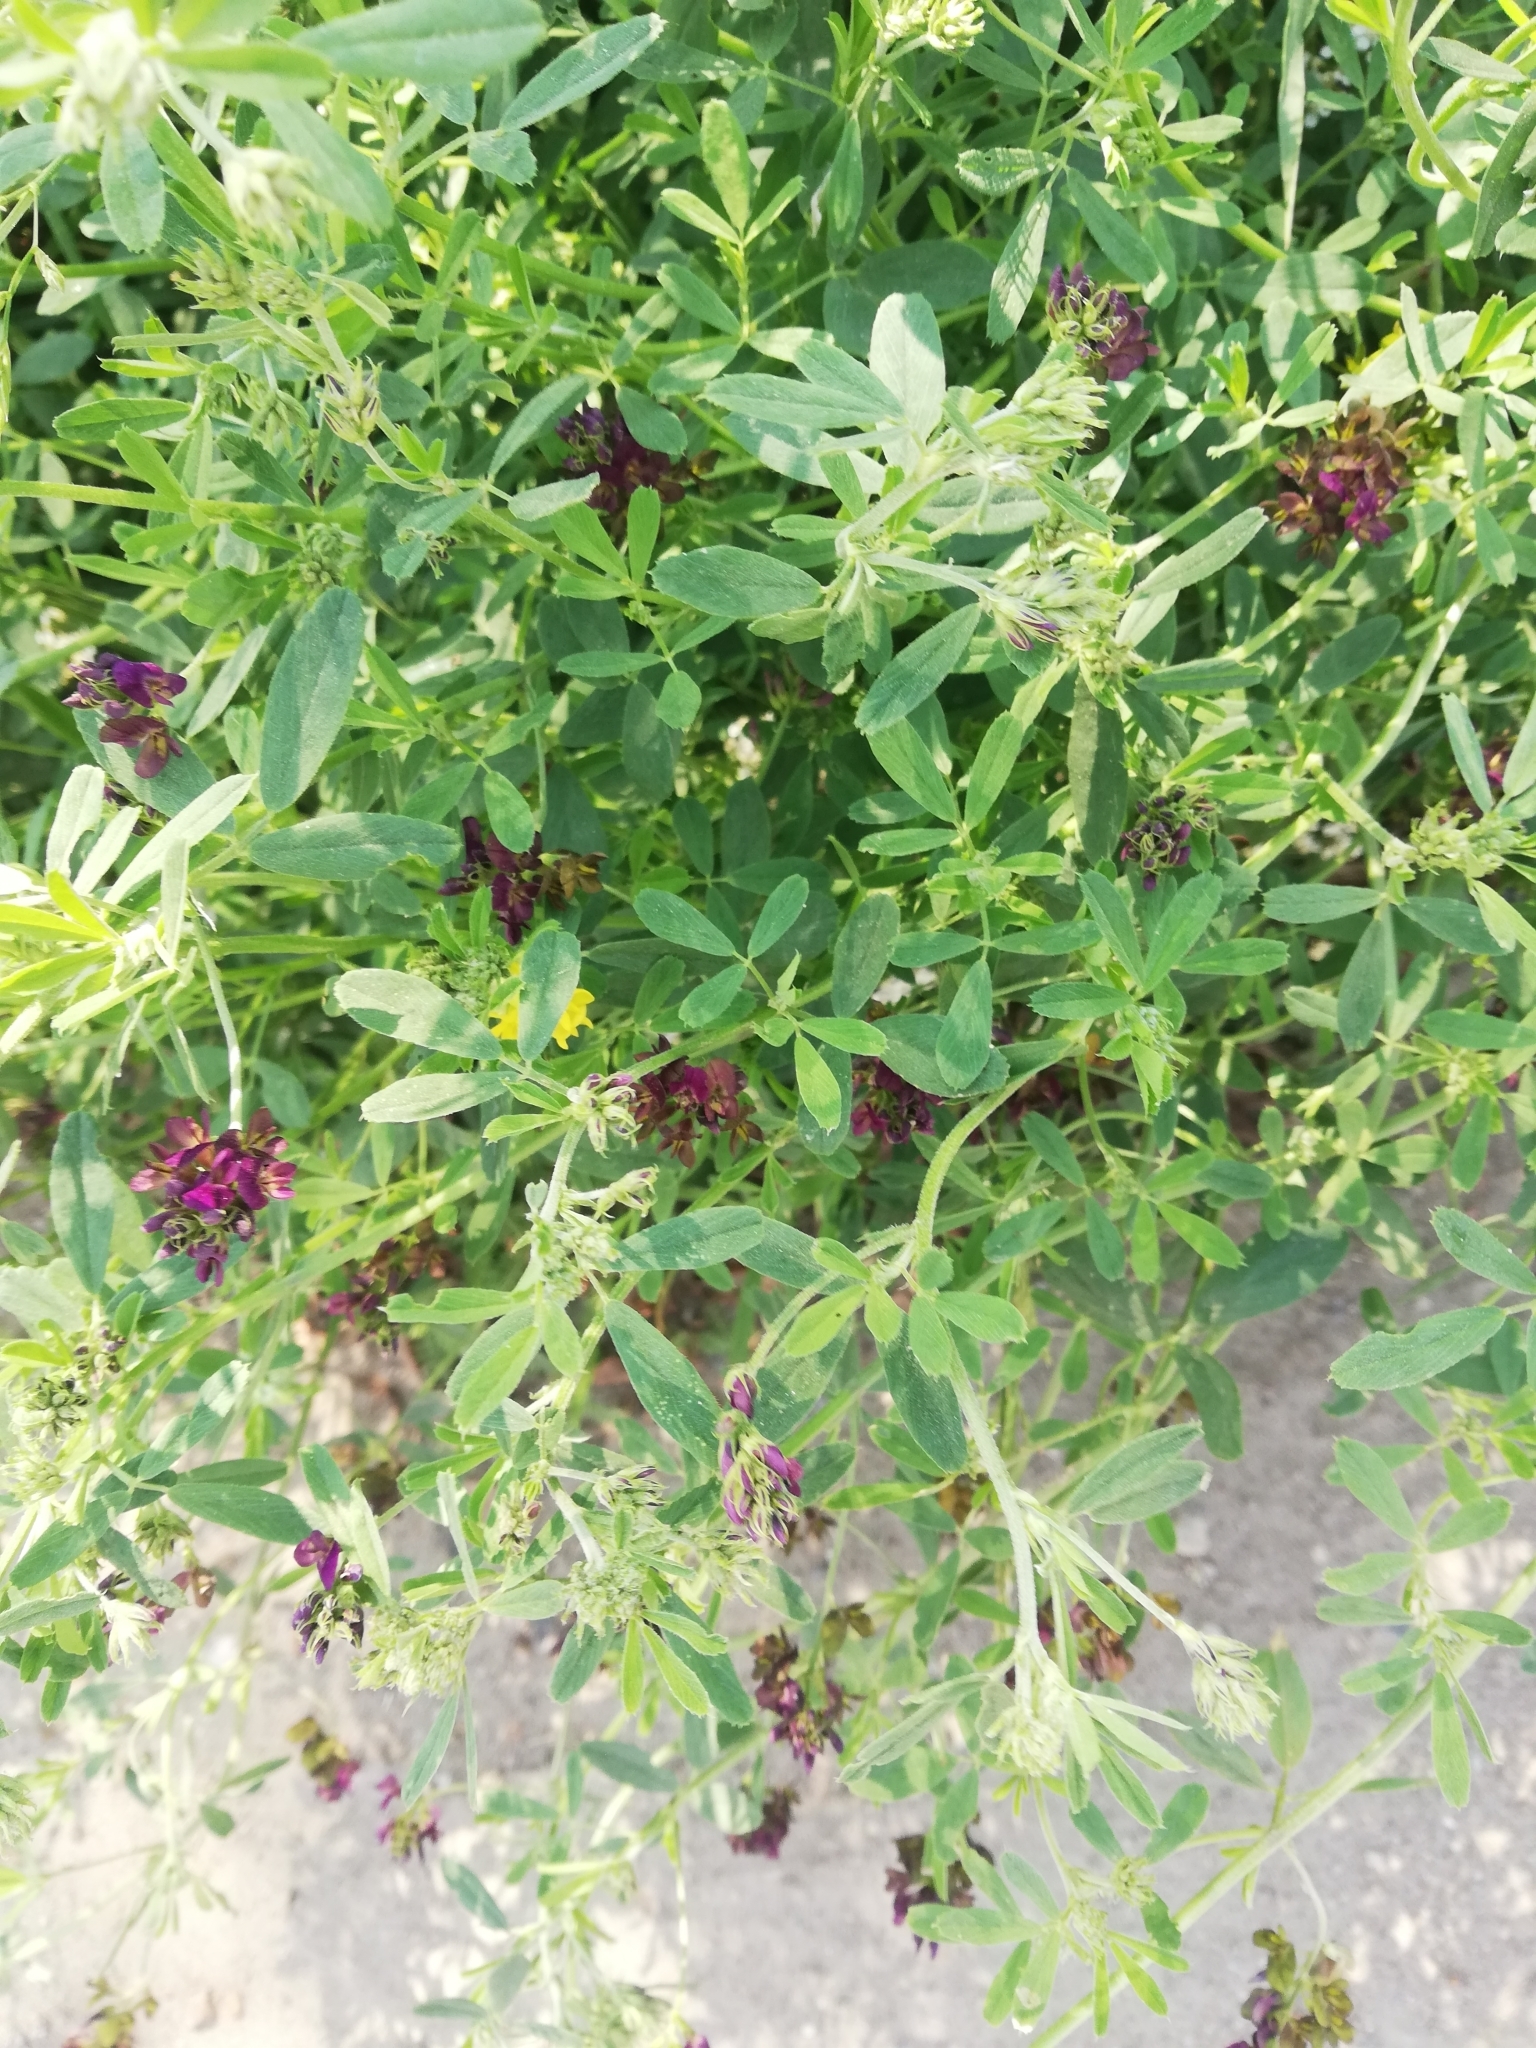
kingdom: Plantae
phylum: Tracheophyta
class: Magnoliopsida
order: Fabales
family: Fabaceae
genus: Medicago
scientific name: Medicago varia
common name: Sand lucerne
